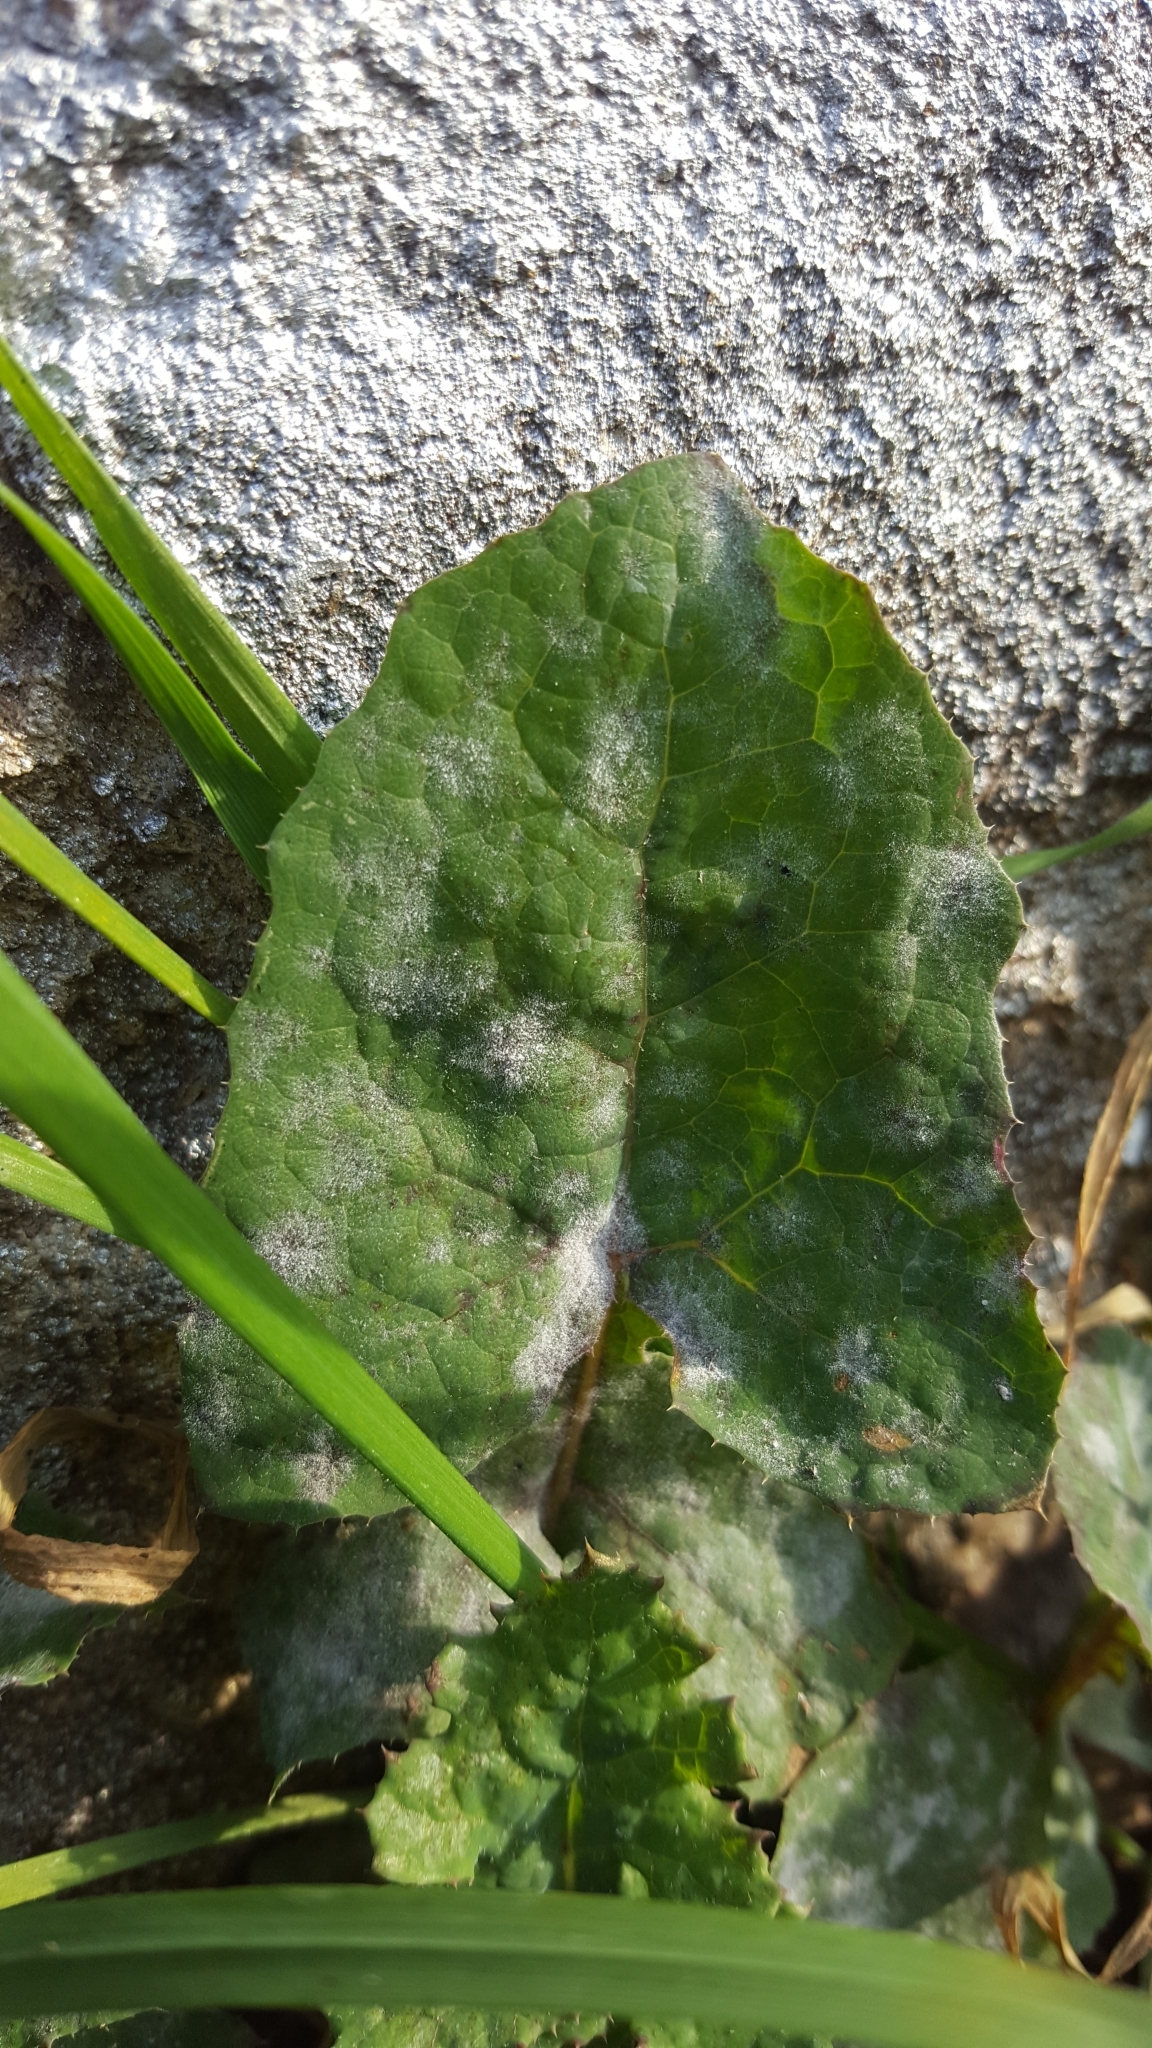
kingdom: Fungi
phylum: Ascomycota
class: Leotiomycetes
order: Helotiales
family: Erysiphaceae
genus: Golovinomyces
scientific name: Golovinomyces sonchicola
